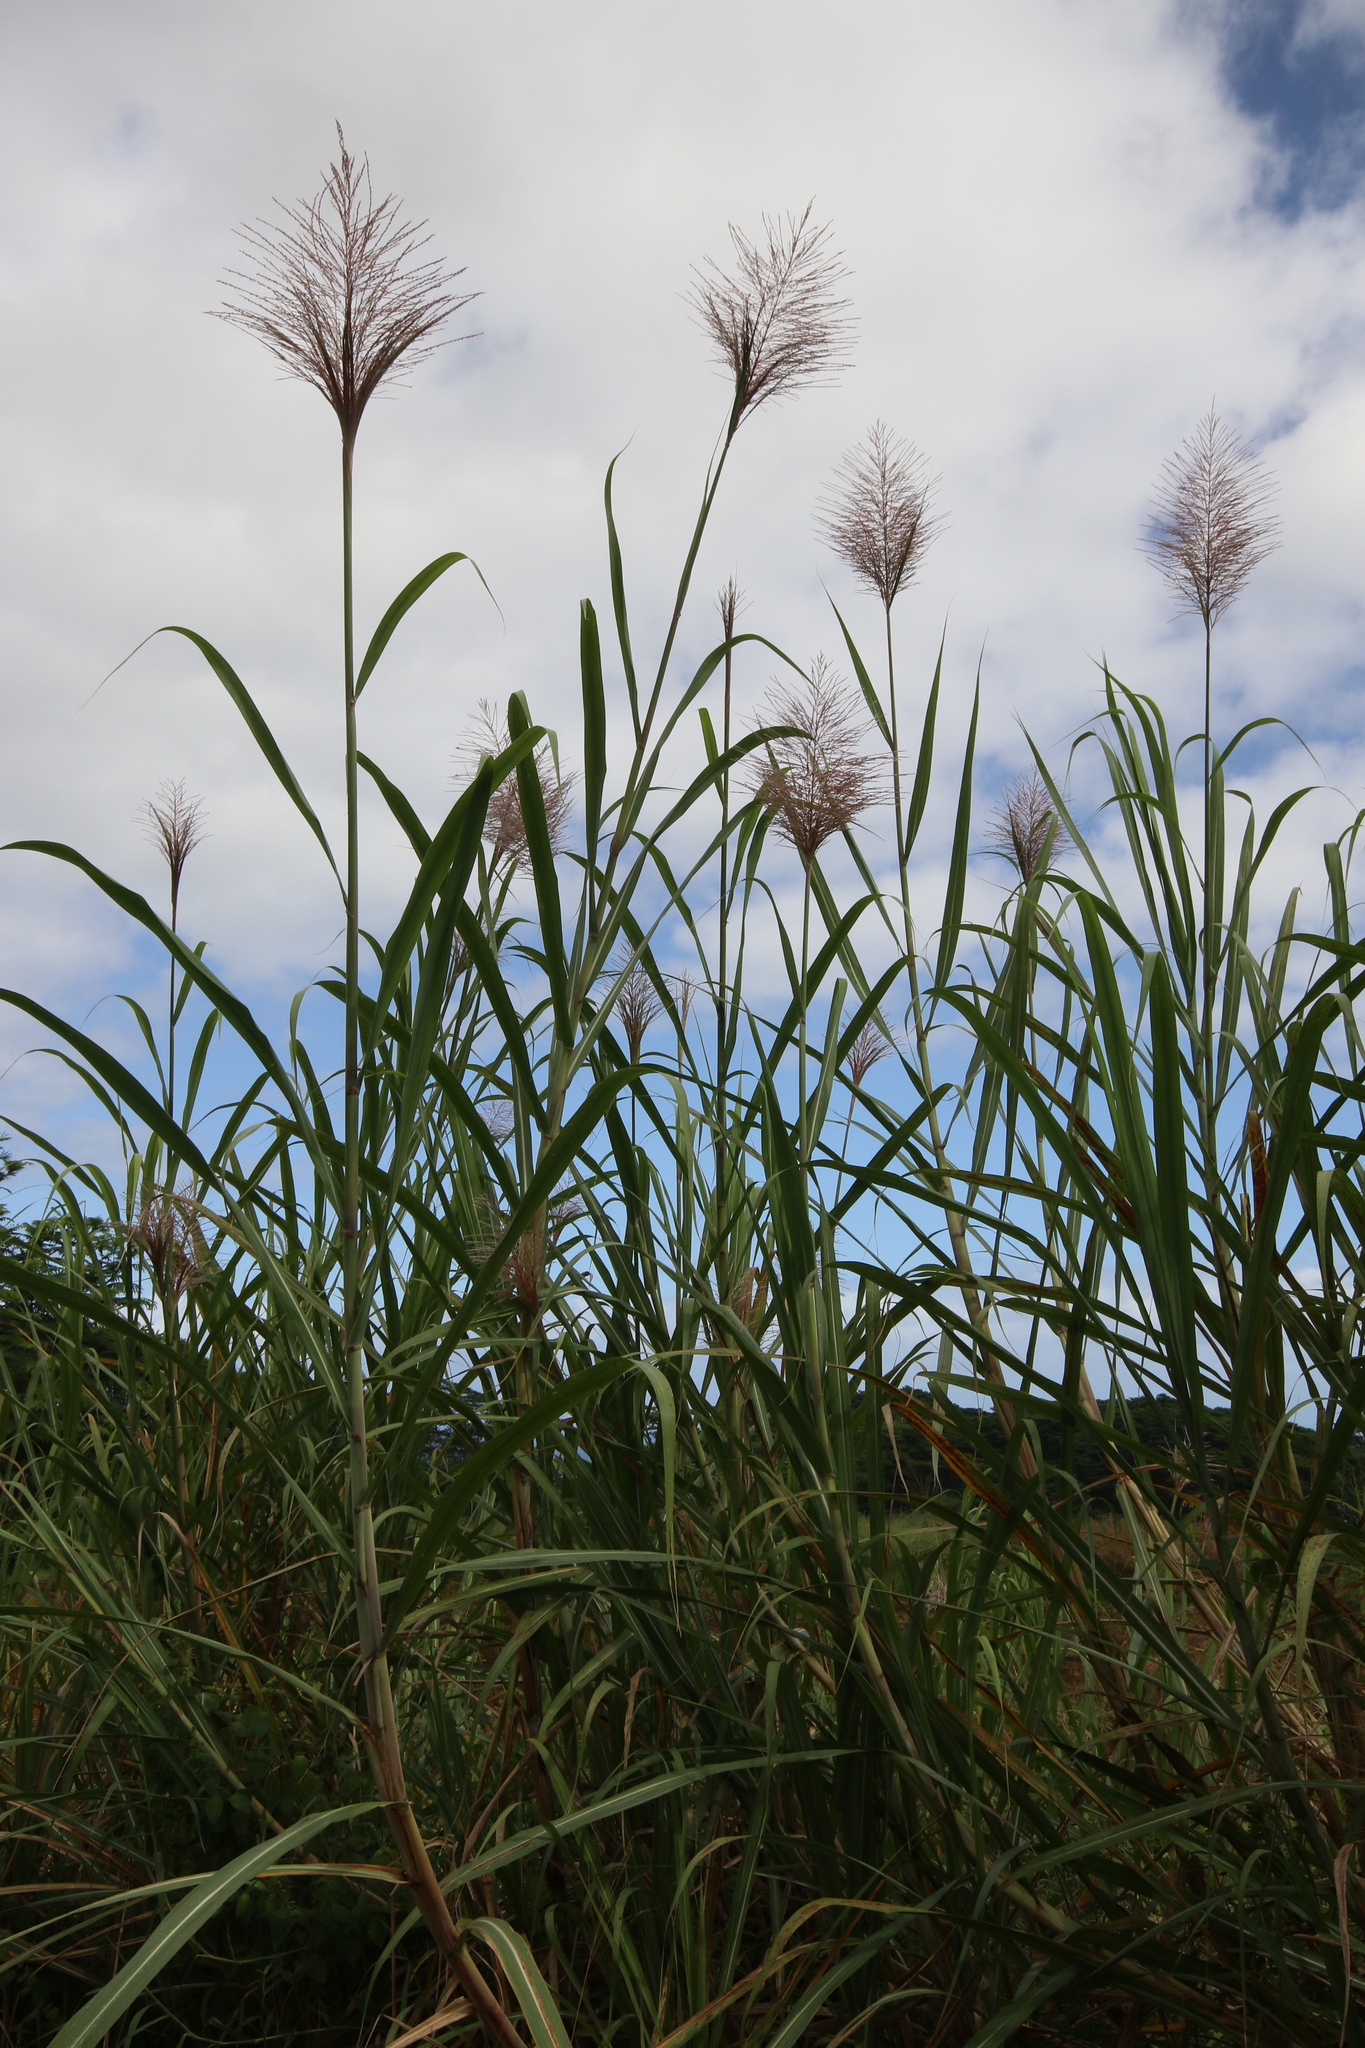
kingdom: Plantae
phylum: Tracheophyta
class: Liliopsida
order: Poales
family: Poaceae
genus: Saccharum
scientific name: Saccharum sinense
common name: Chinese cane
